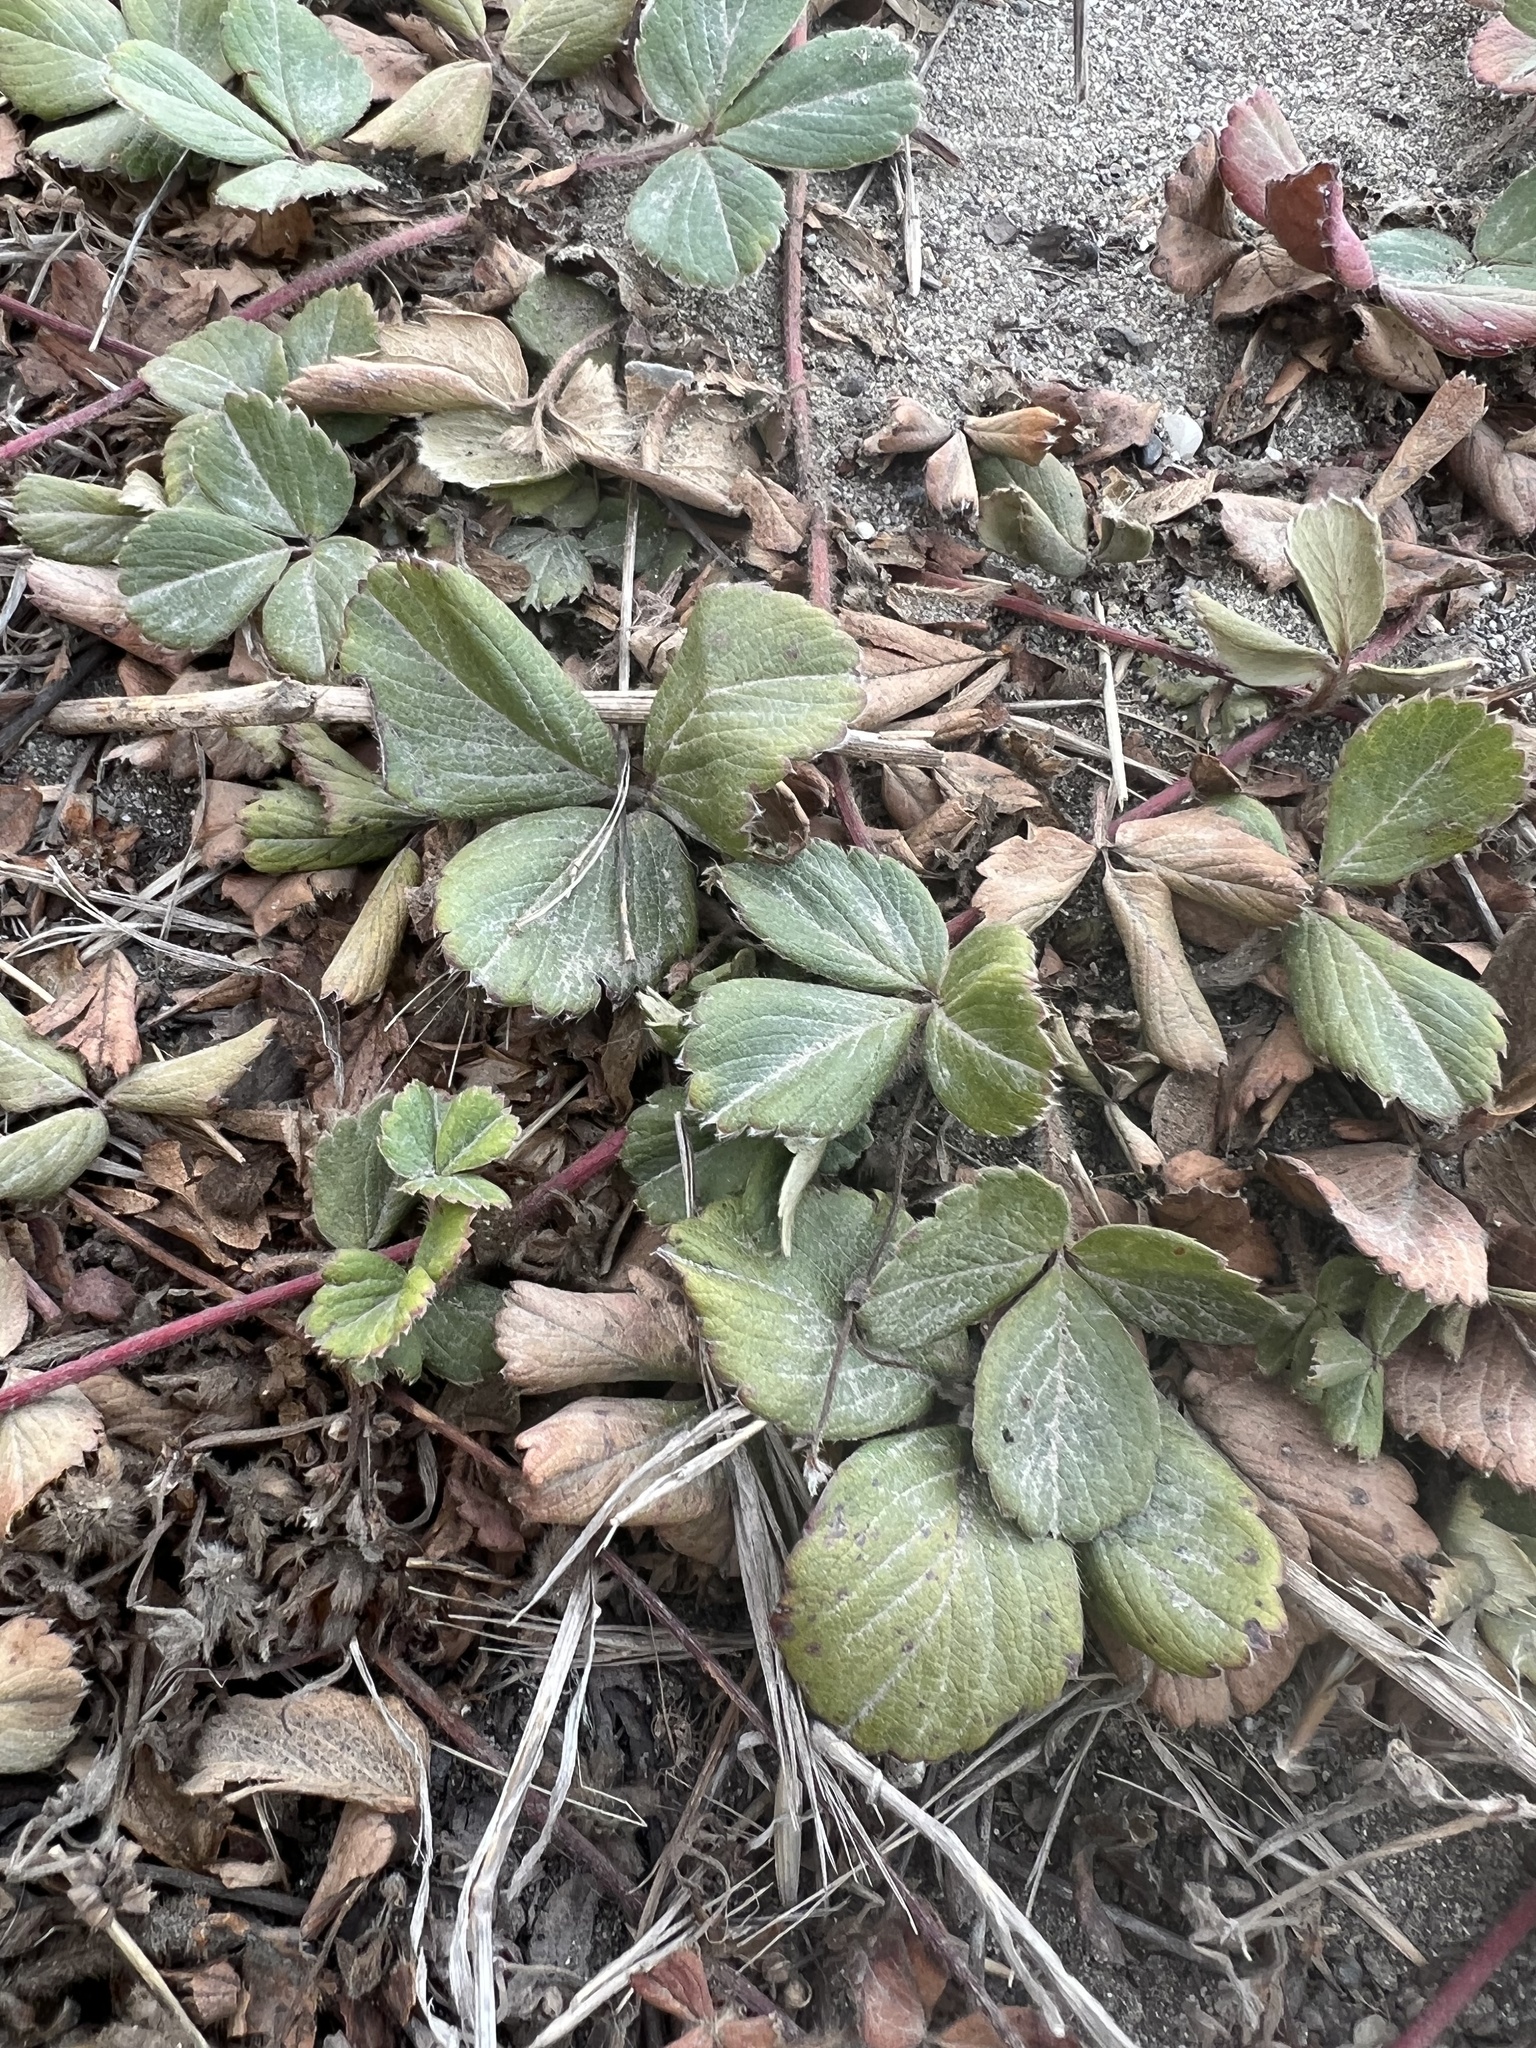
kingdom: Plantae
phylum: Tracheophyta
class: Magnoliopsida
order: Rosales
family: Rosaceae
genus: Fragaria
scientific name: Fragaria chiloensis
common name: Beach strawberry
